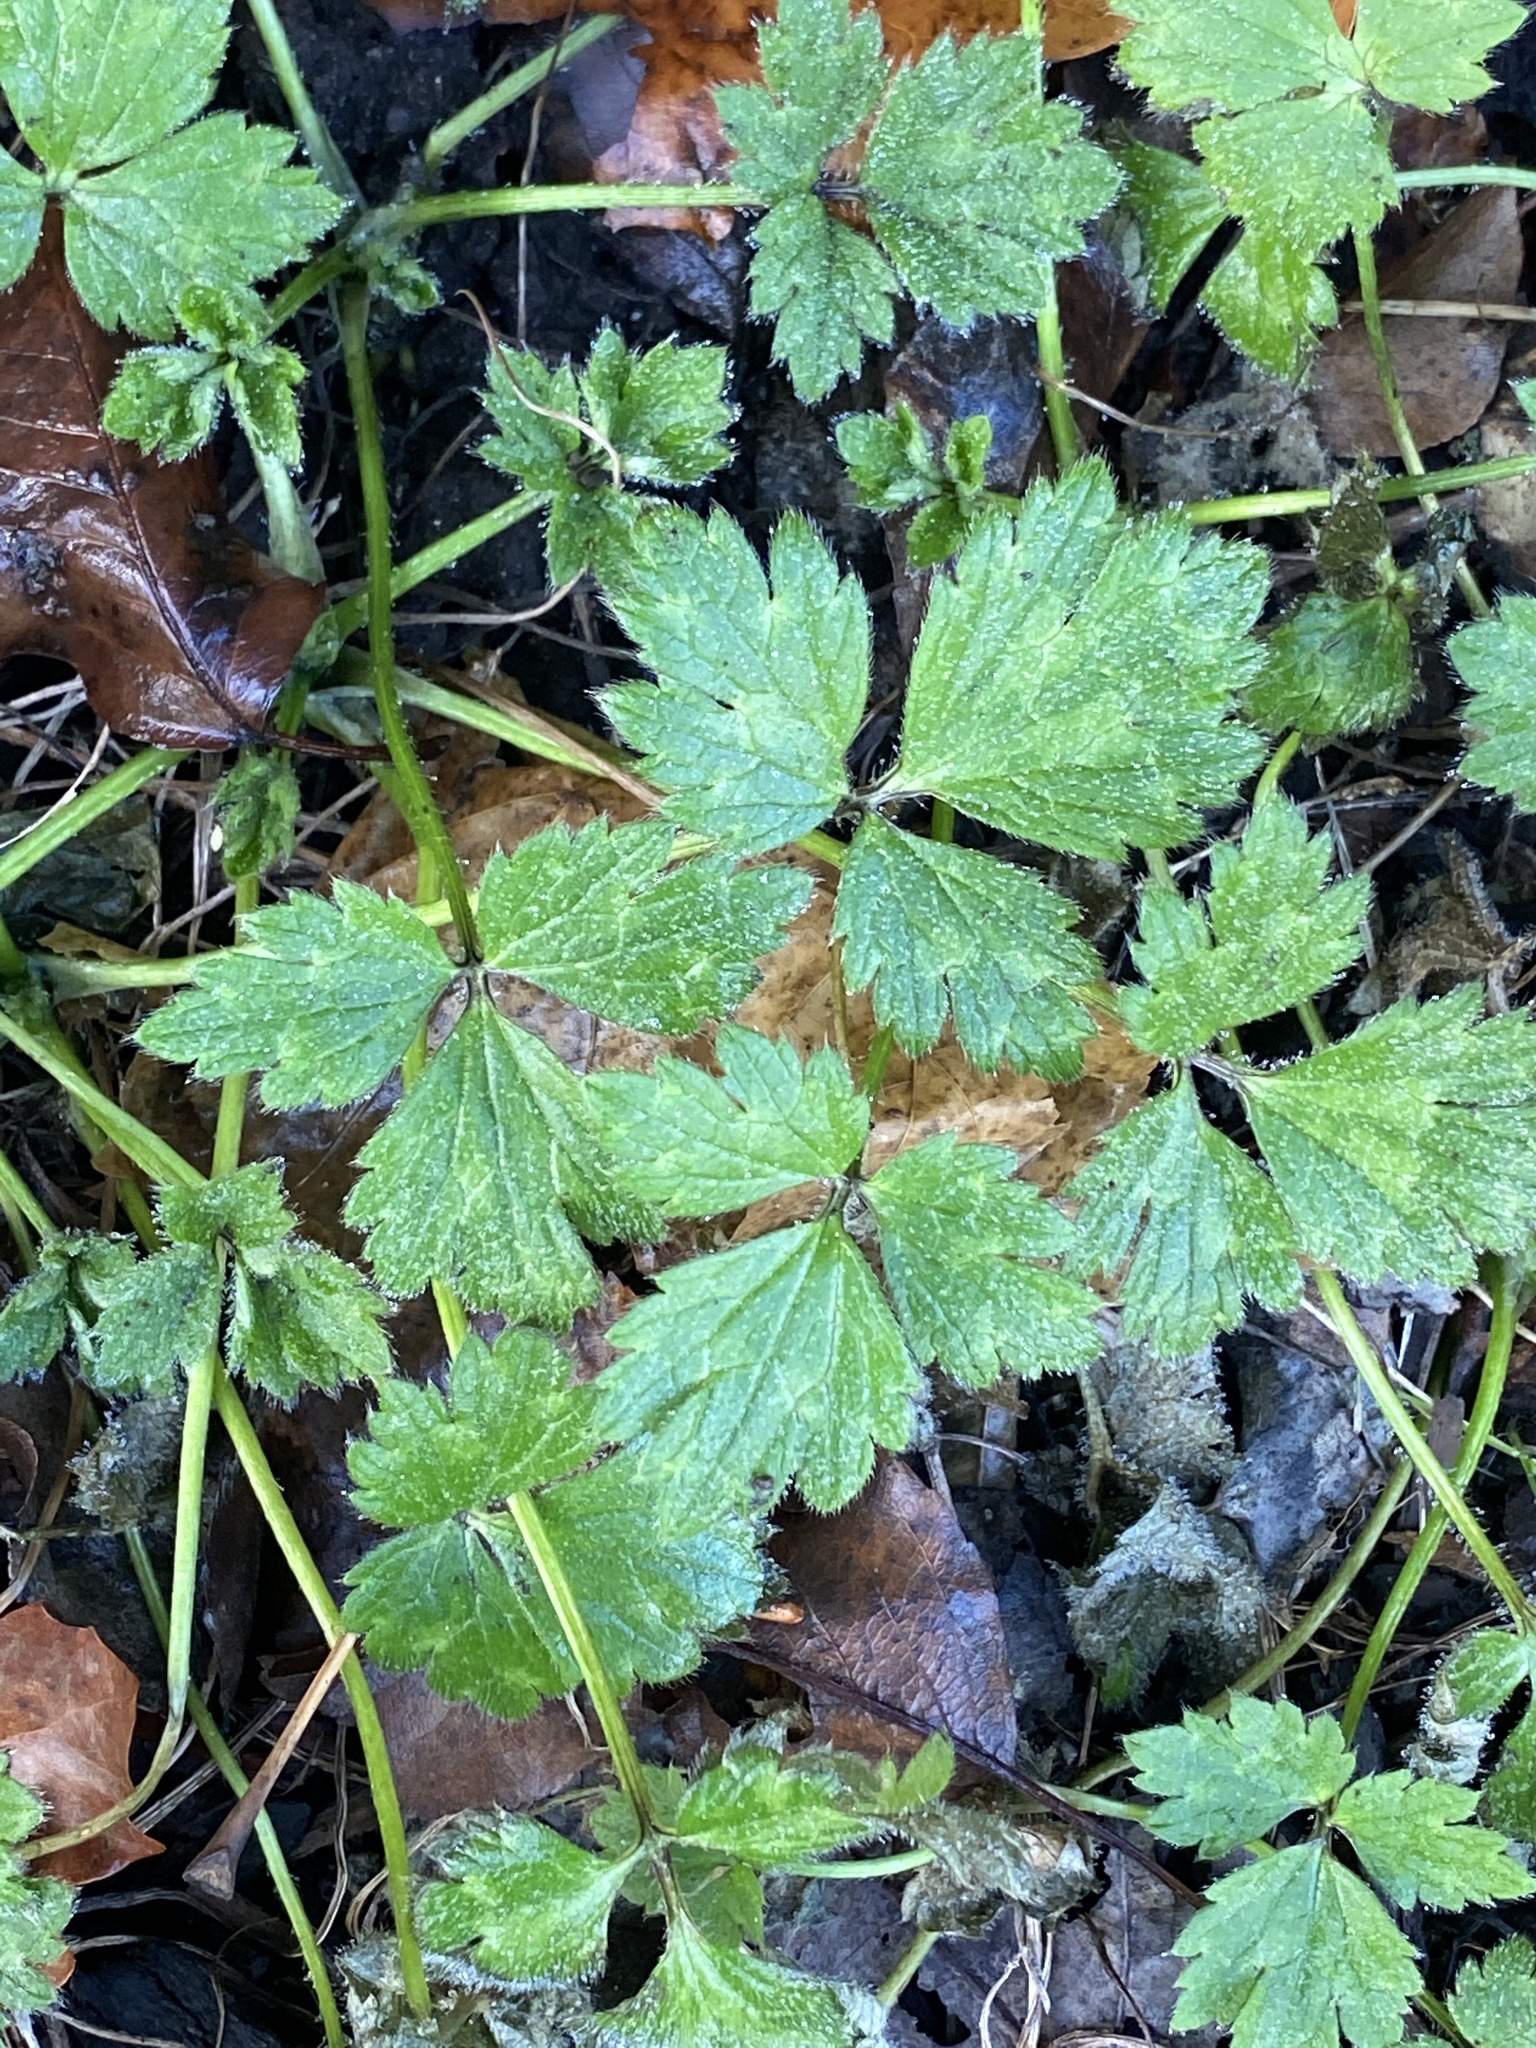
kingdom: Plantae
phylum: Tracheophyta
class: Magnoliopsida
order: Ranunculales
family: Ranunculaceae
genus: Ranunculus
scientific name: Ranunculus repens
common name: Creeping buttercup
